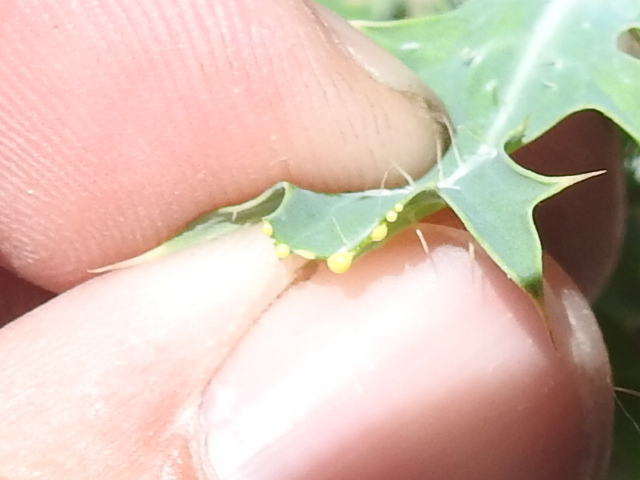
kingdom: Plantae
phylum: Tracheophyta
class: Magnoliopsida
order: Ranunculales
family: Papaveraceae
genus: Argemone
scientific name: Argemone sanguinea
